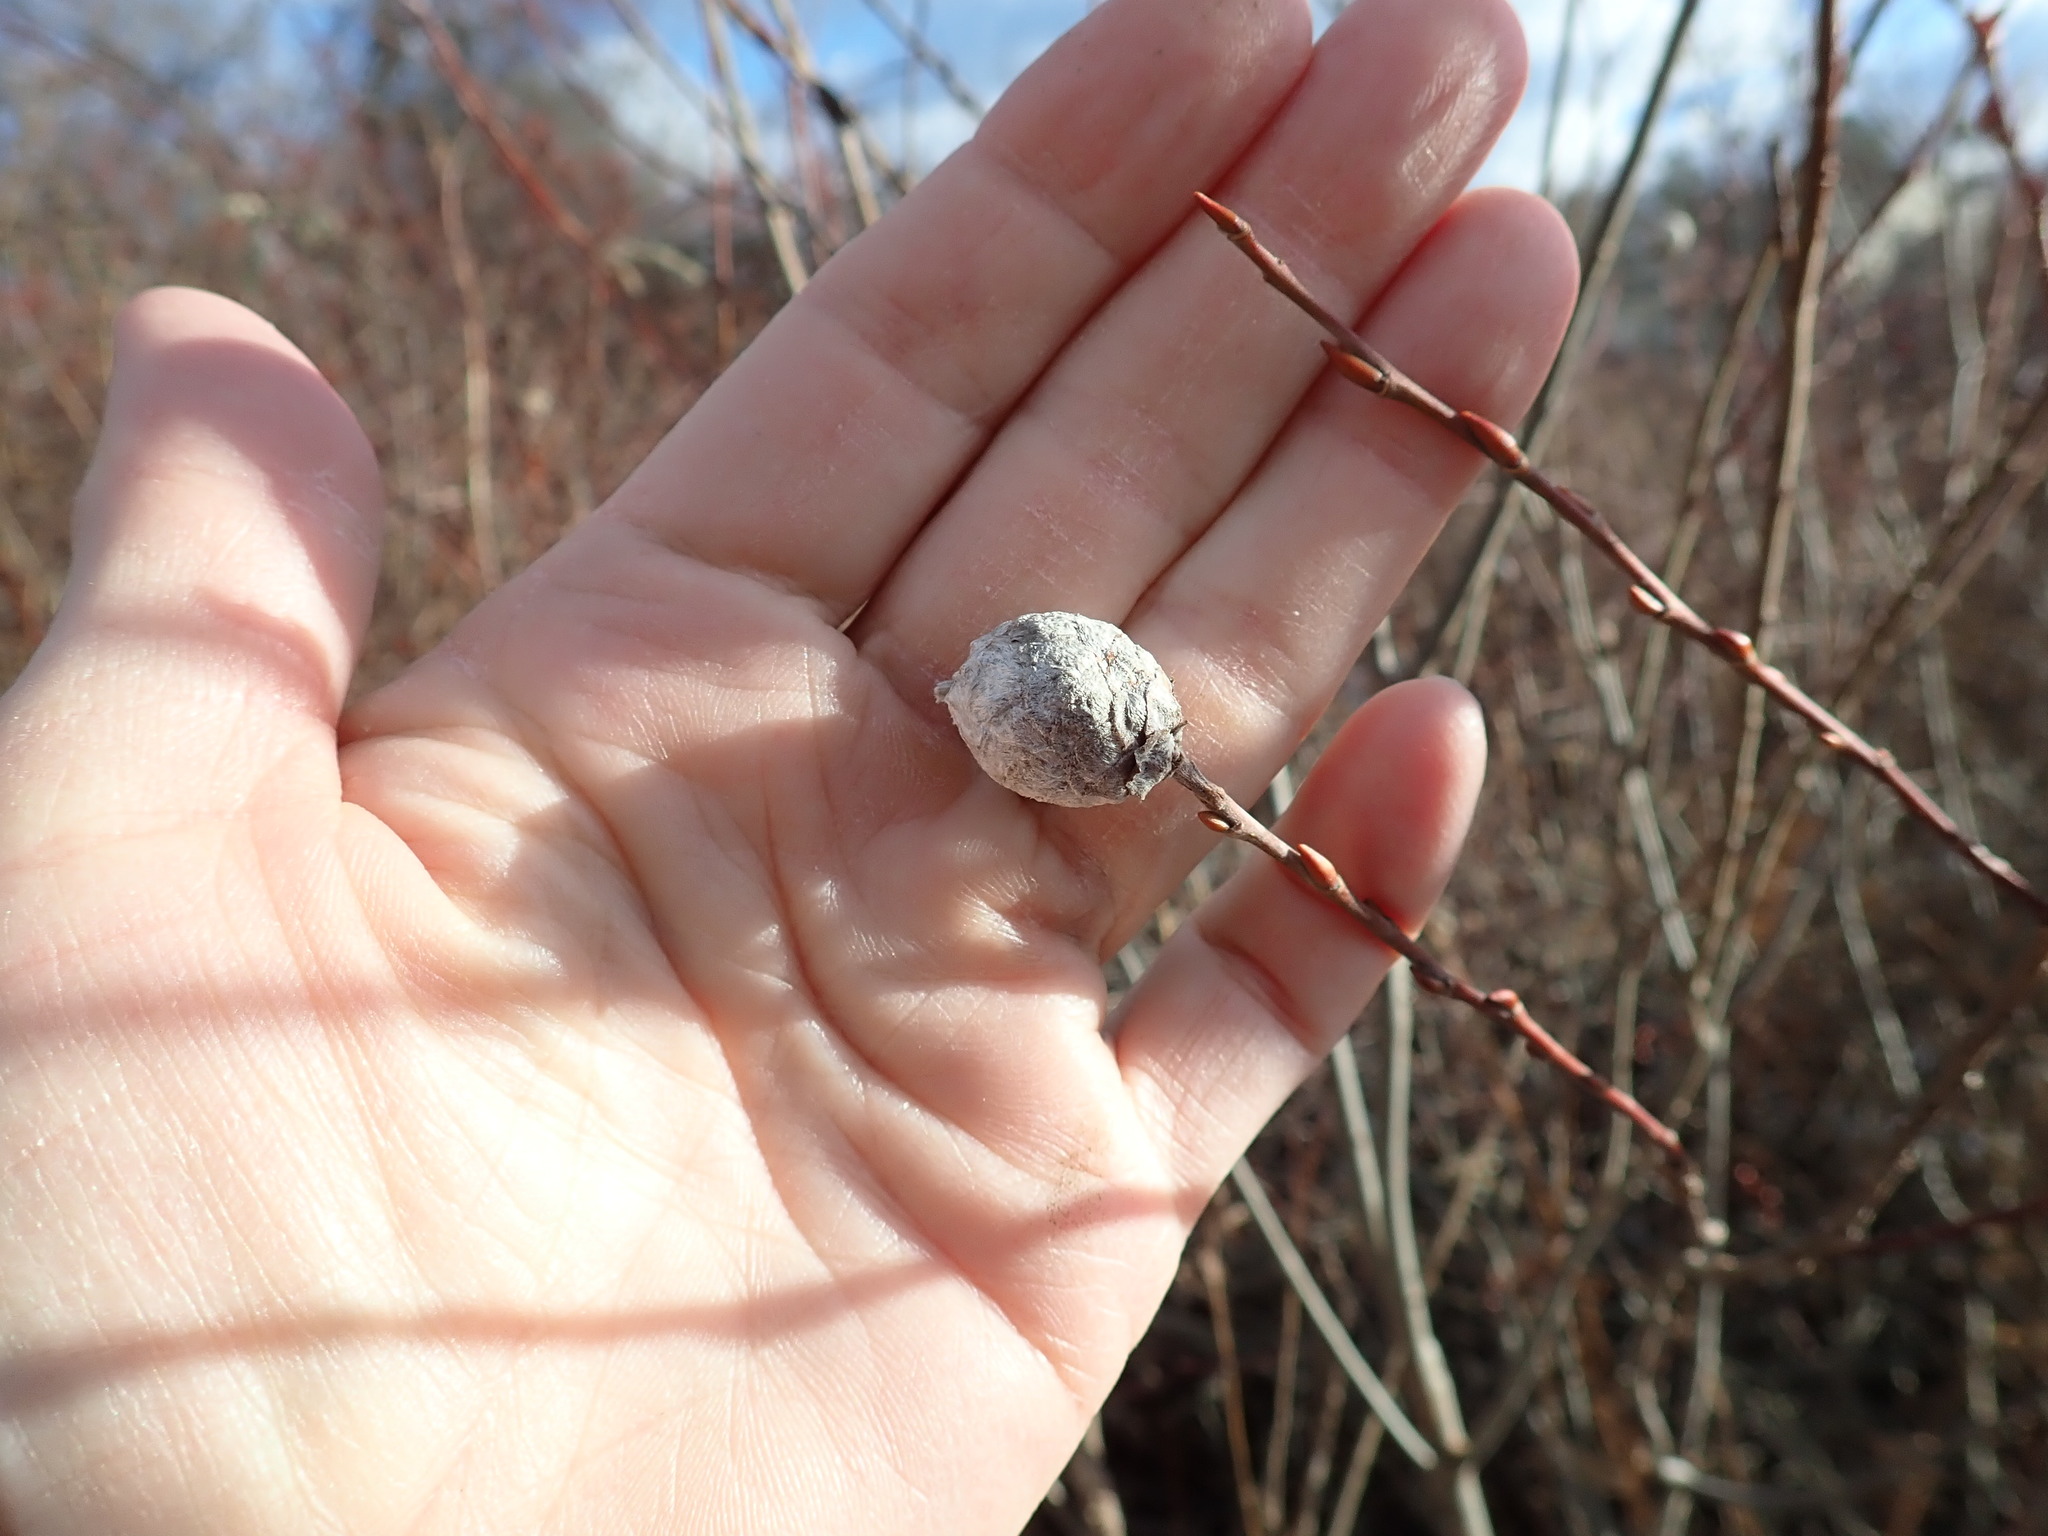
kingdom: Animalia
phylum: Arthropoda
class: Insecta
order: Diptera
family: Cecidomyiidae
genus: Rabdophaga
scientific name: Rabdophaga strobiloides
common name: Willow pinecone gall midge
